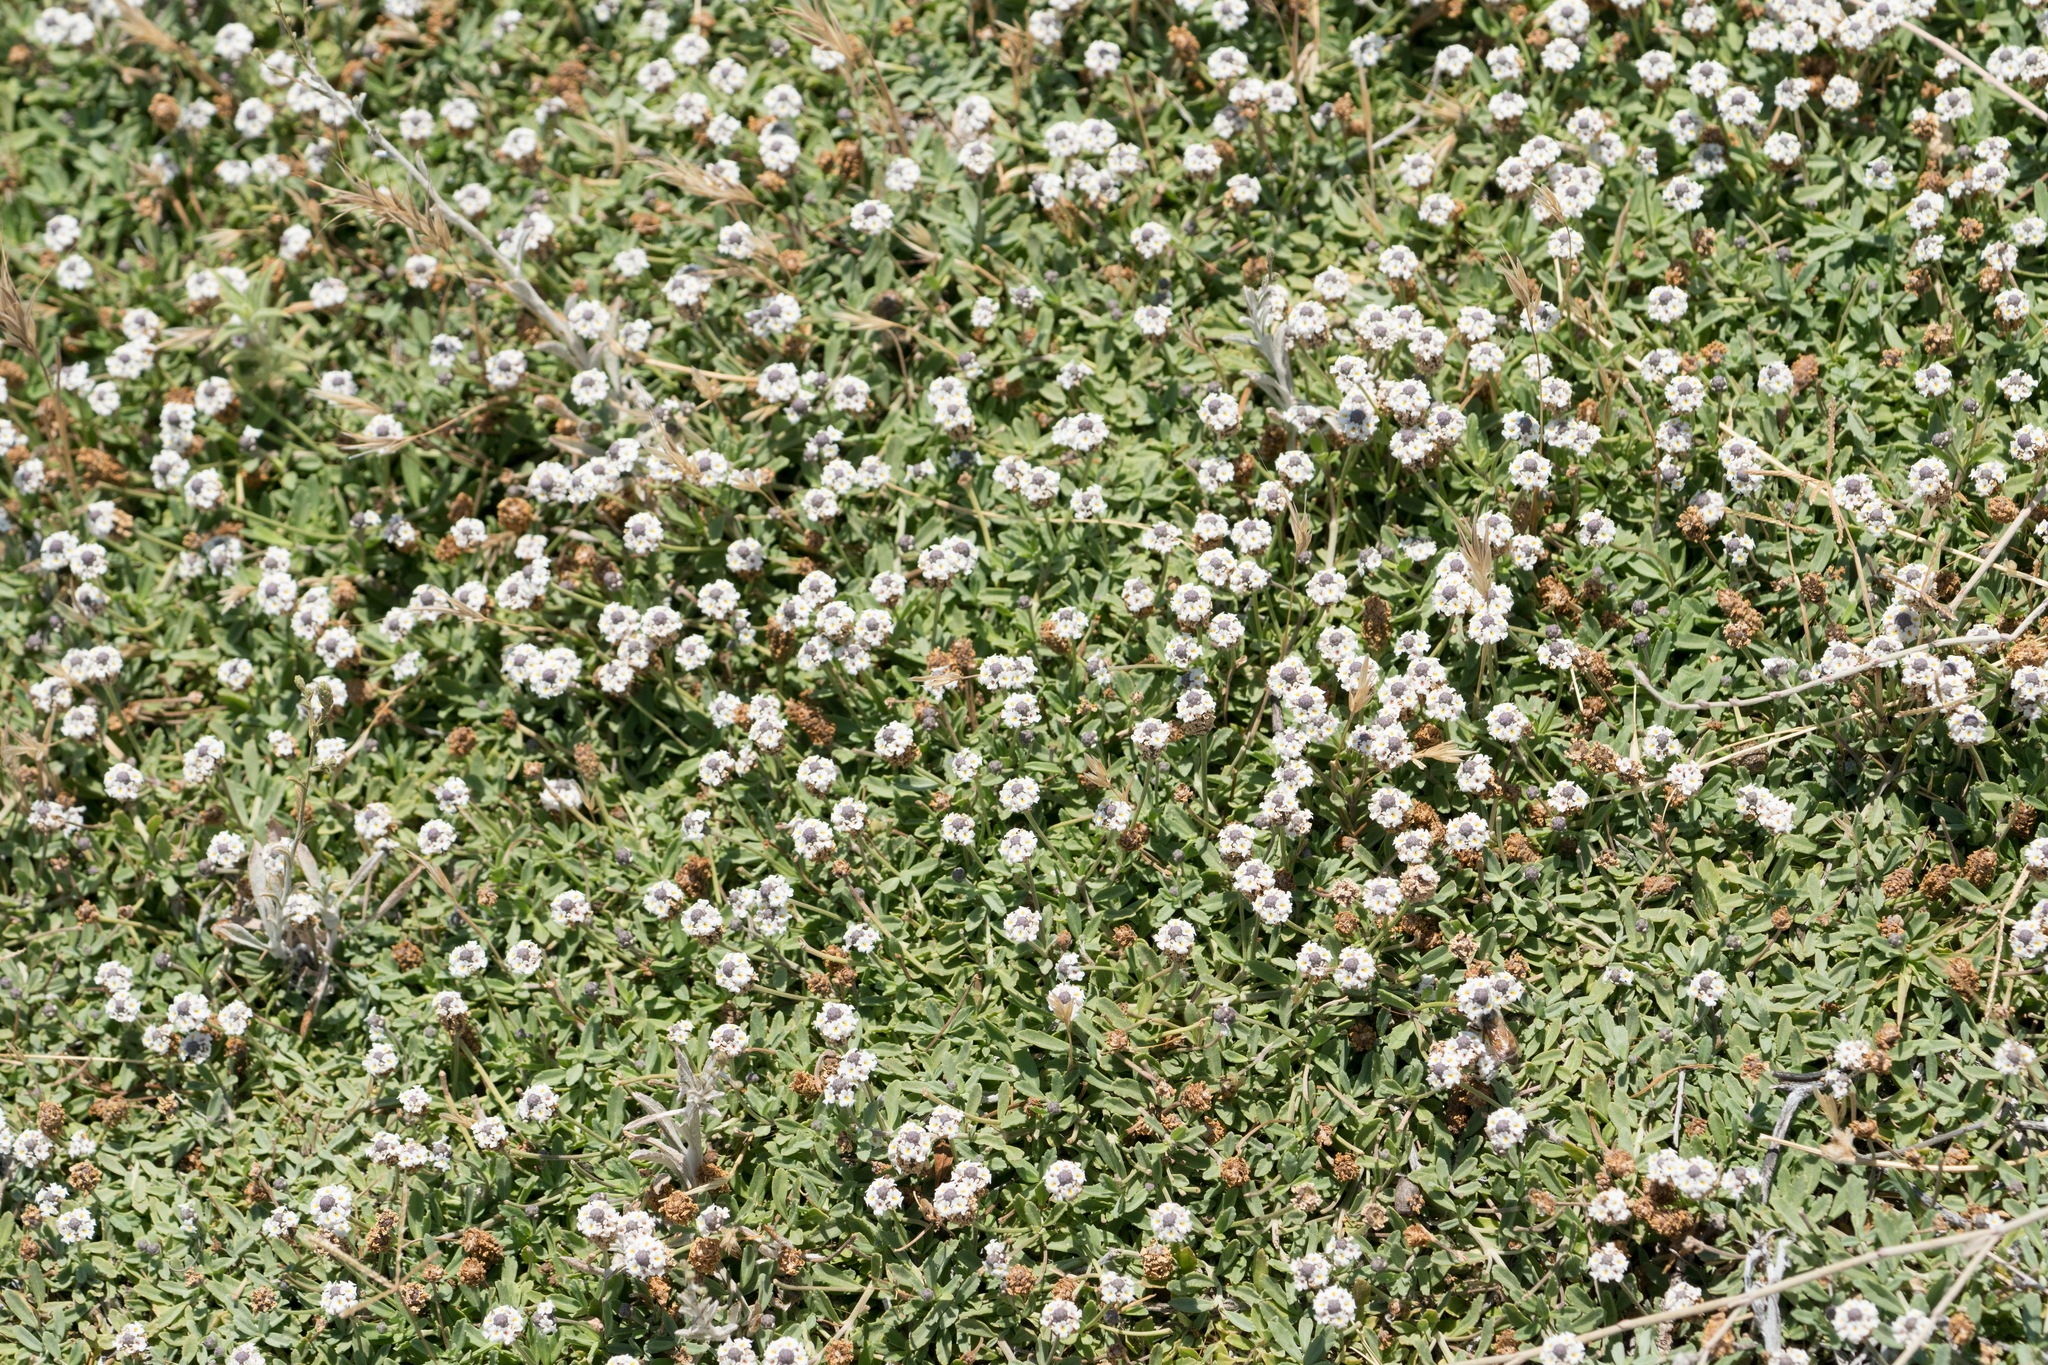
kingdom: Plantae
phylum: Tracheophyta
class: Magnoliopsida
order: Lamiales
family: Verbenaceae
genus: Phyla
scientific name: Phyla nodiflora
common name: Frogfruit
